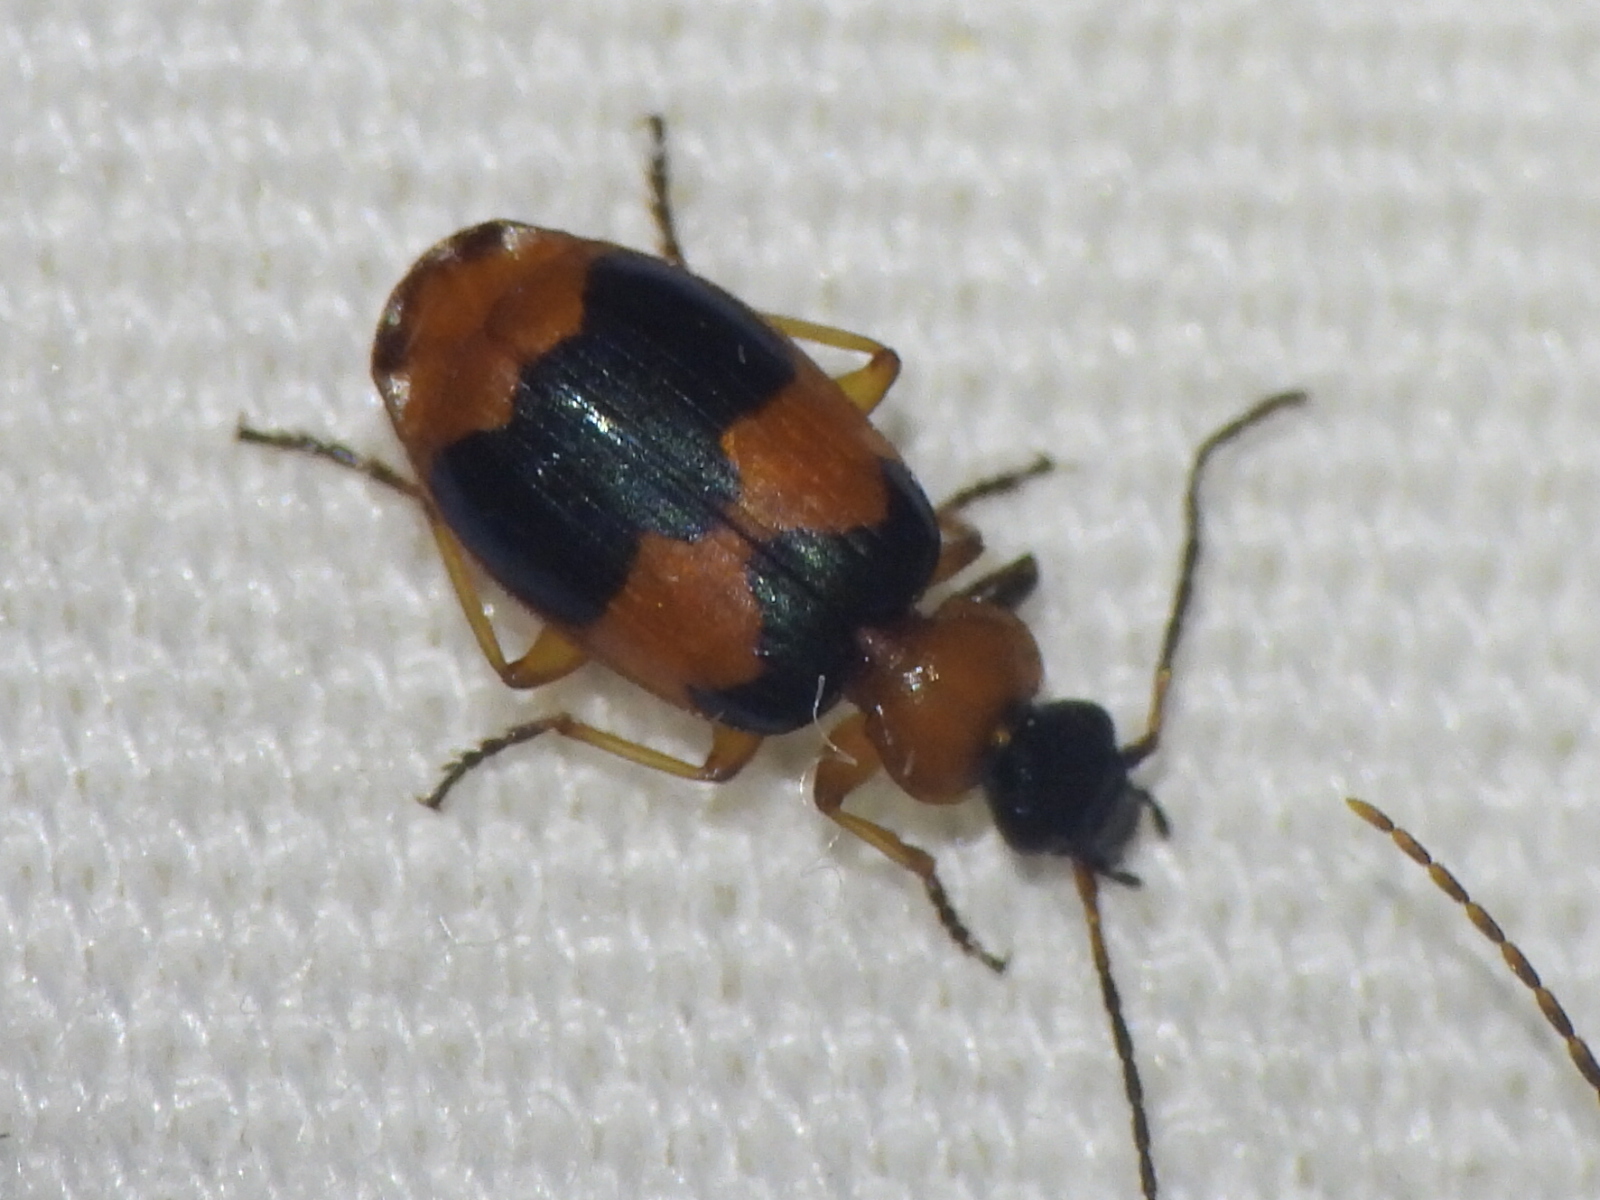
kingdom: Animalia
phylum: Arthropoda
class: Insecta
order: Coleoptera
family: Carabidae
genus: Lebia
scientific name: Lebia pulchella
